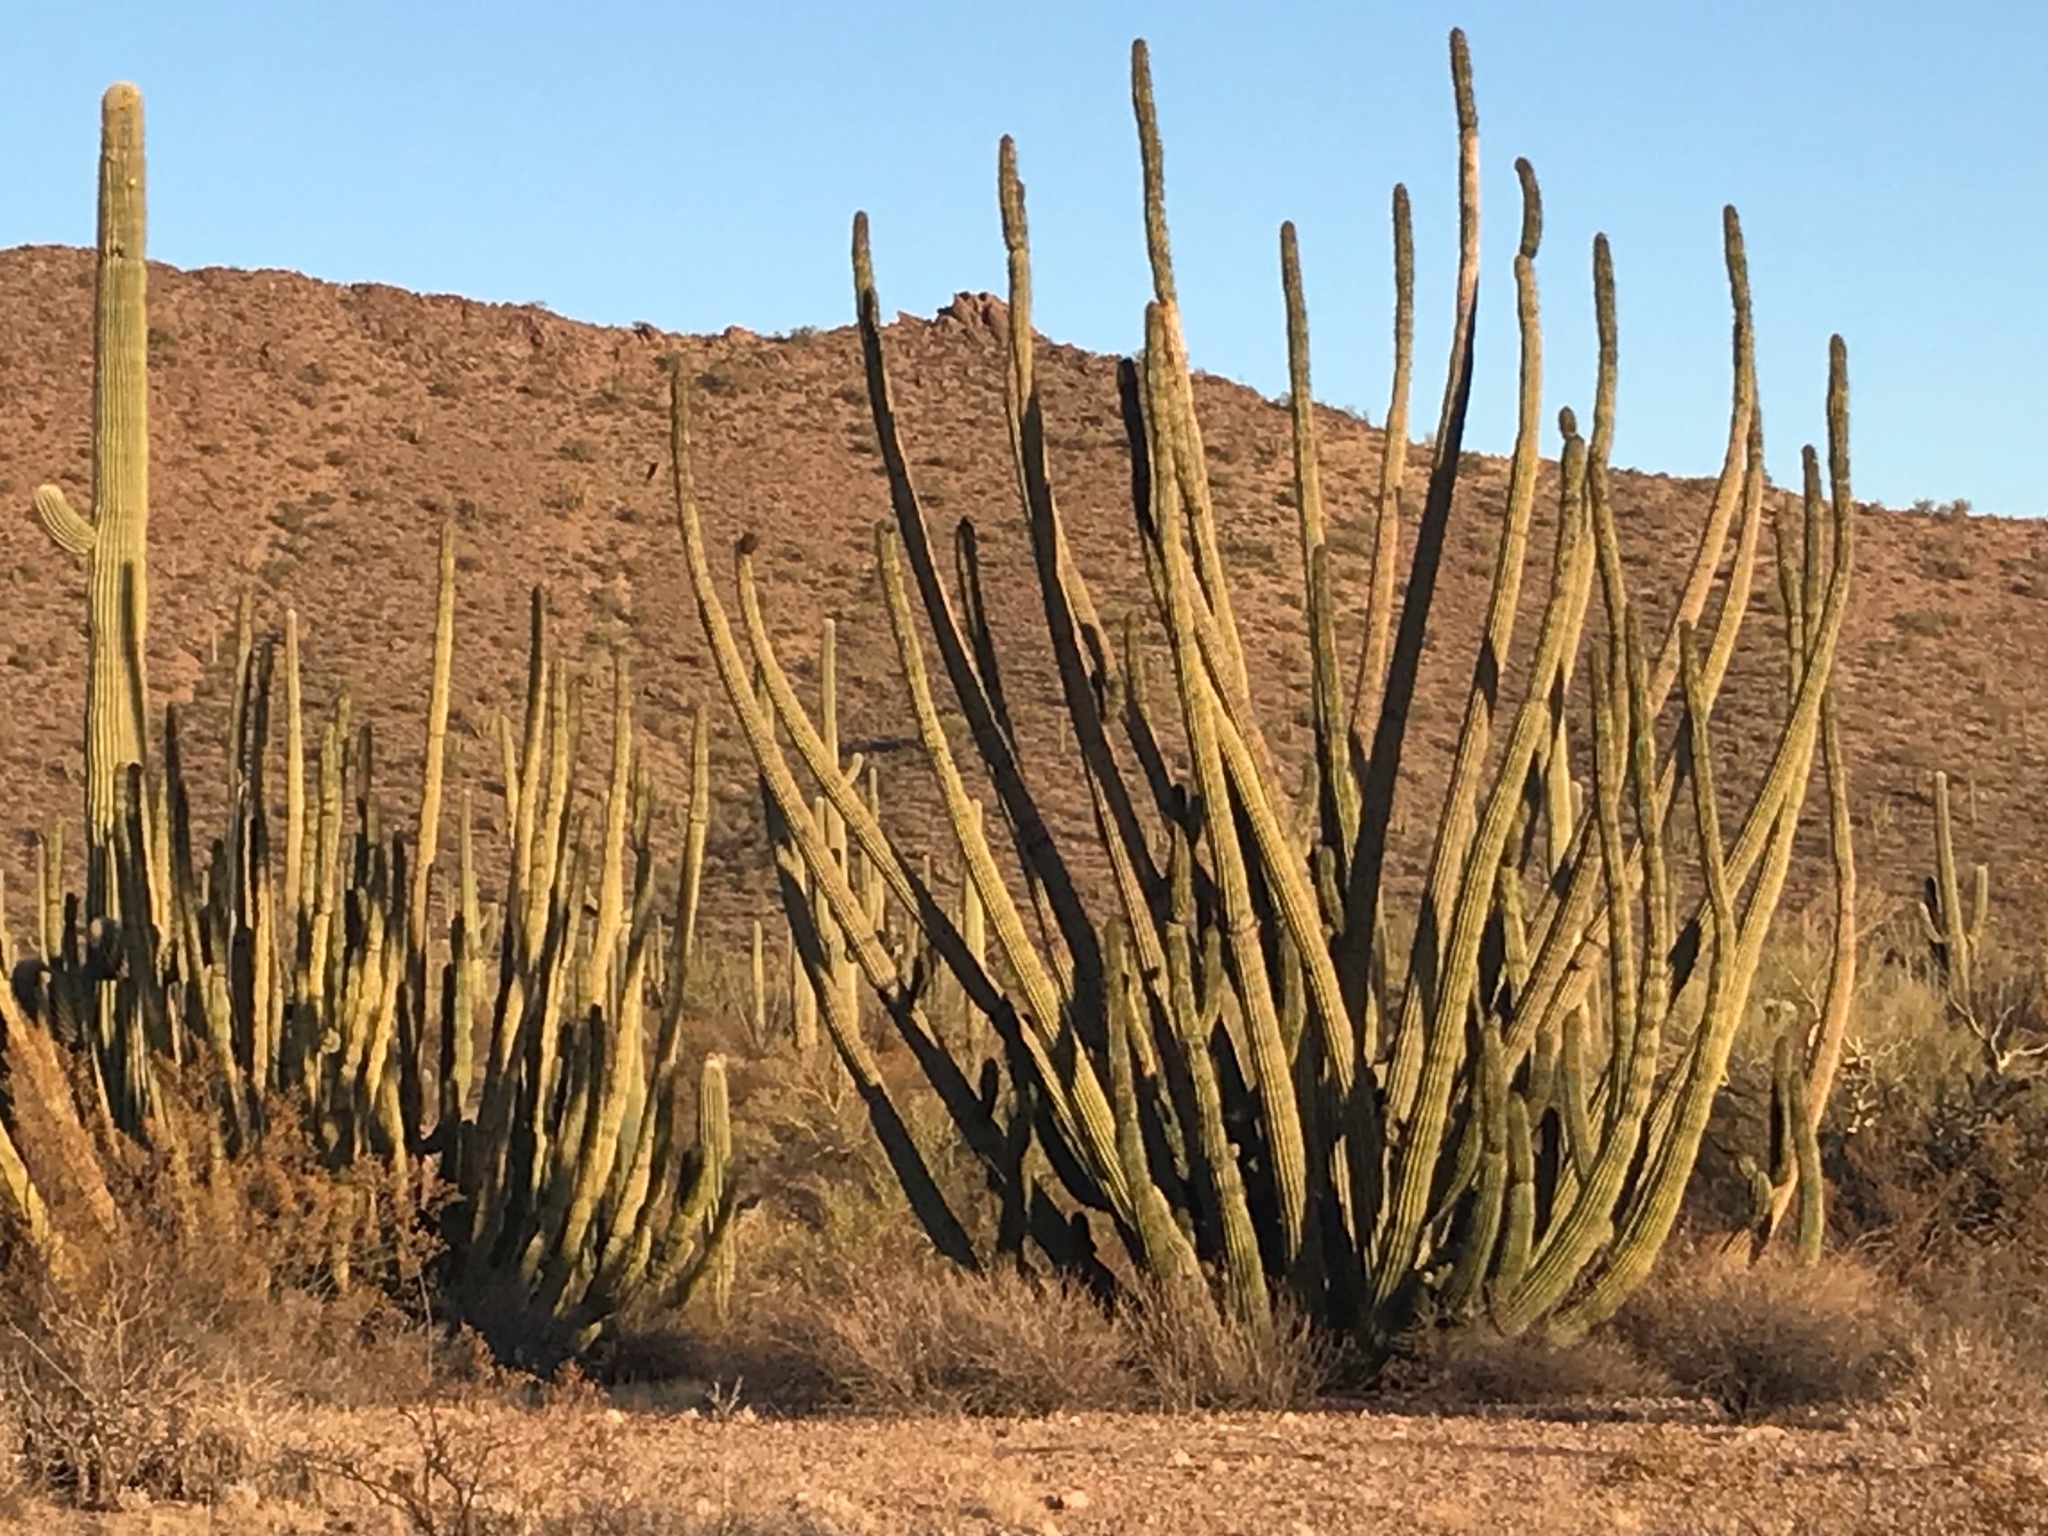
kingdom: Plantae
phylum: Tracheophyta
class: Magnoliopsida
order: Caryophyllales
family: Cactaceae
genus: Stenocereus
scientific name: Stenocereus thurberi
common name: Organ pipe cactus
